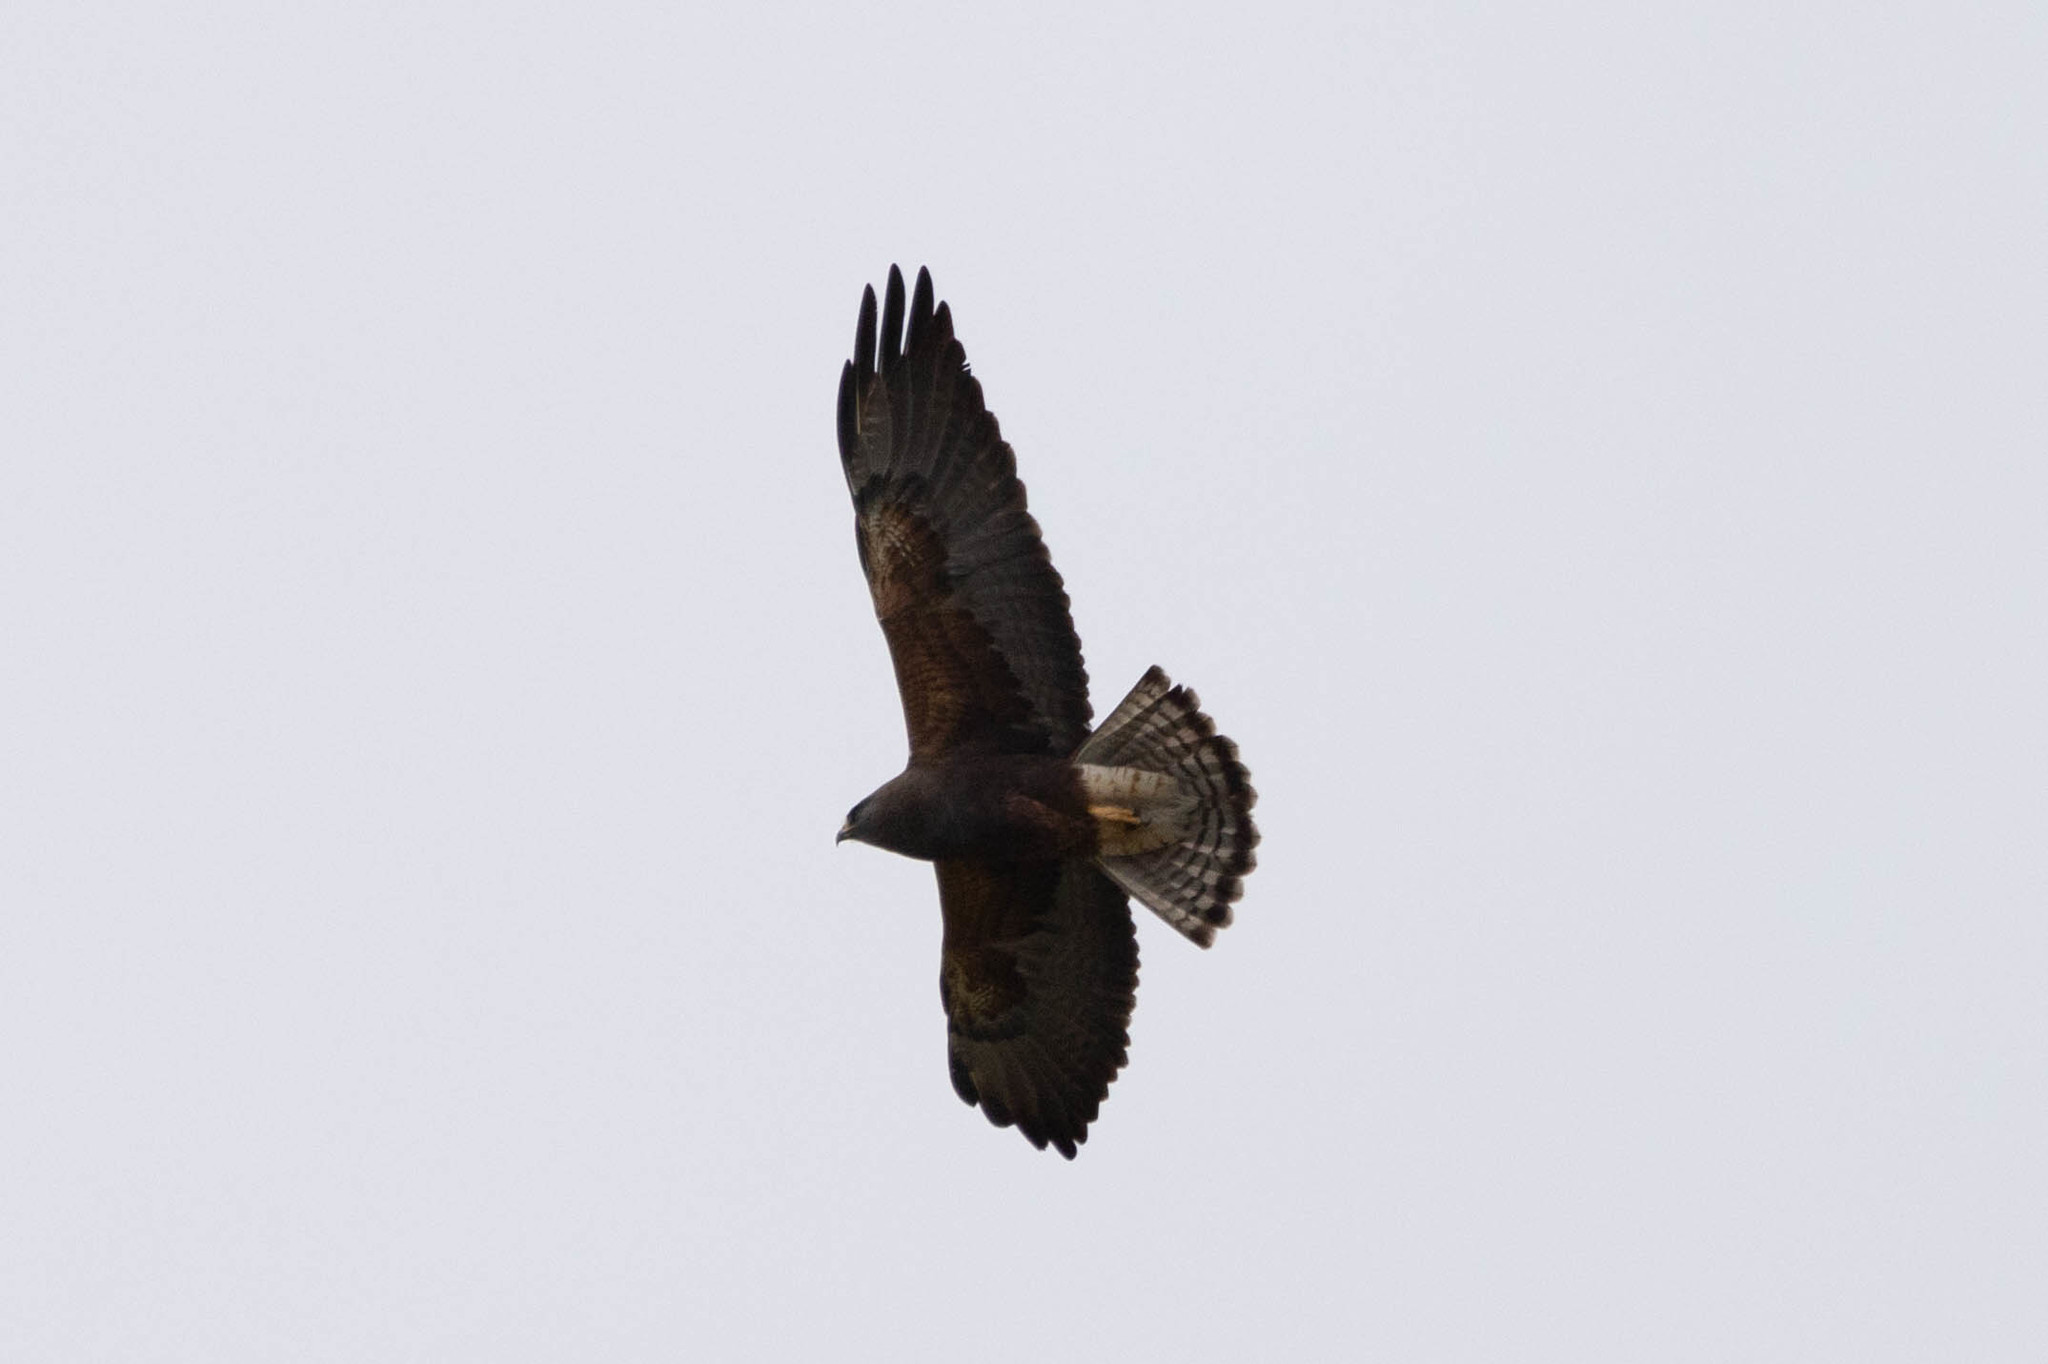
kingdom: Animalia
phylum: Chordata
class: Aves
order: Accipitriformes
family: Accipitridae
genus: Buteo
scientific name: Buteo swainsoni
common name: Swainson's hawk
